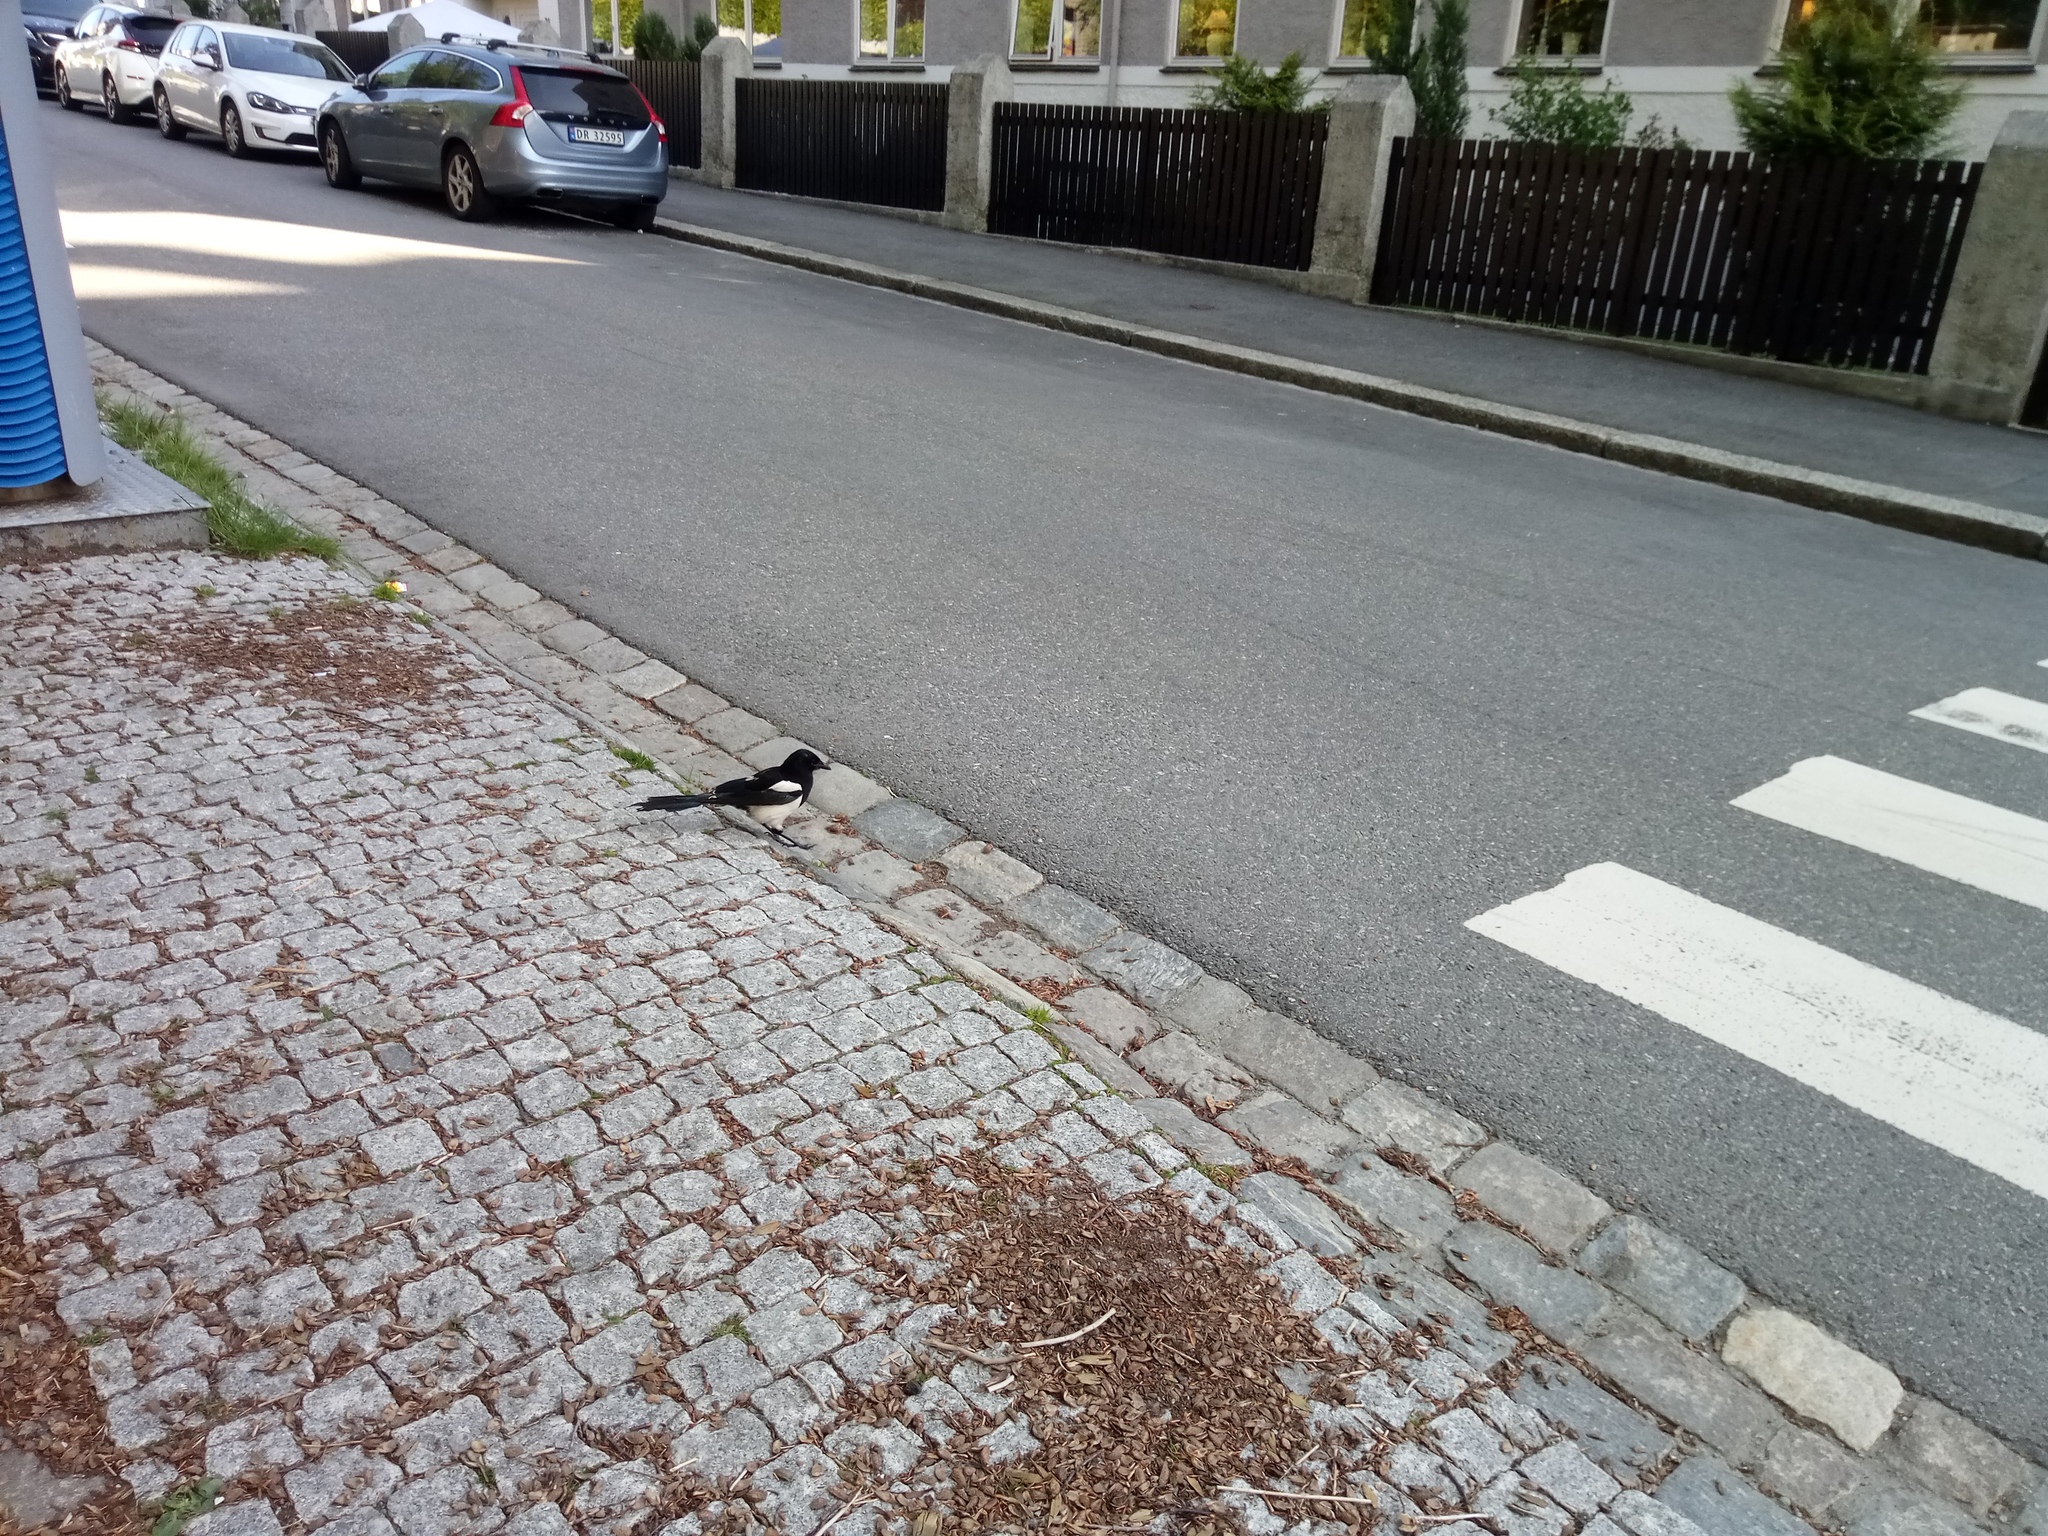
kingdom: Animalia
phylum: Chordata
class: Aves
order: Passeriformes
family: Corvidae
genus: Pica
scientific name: Pica pica
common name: Eurasian magpie
